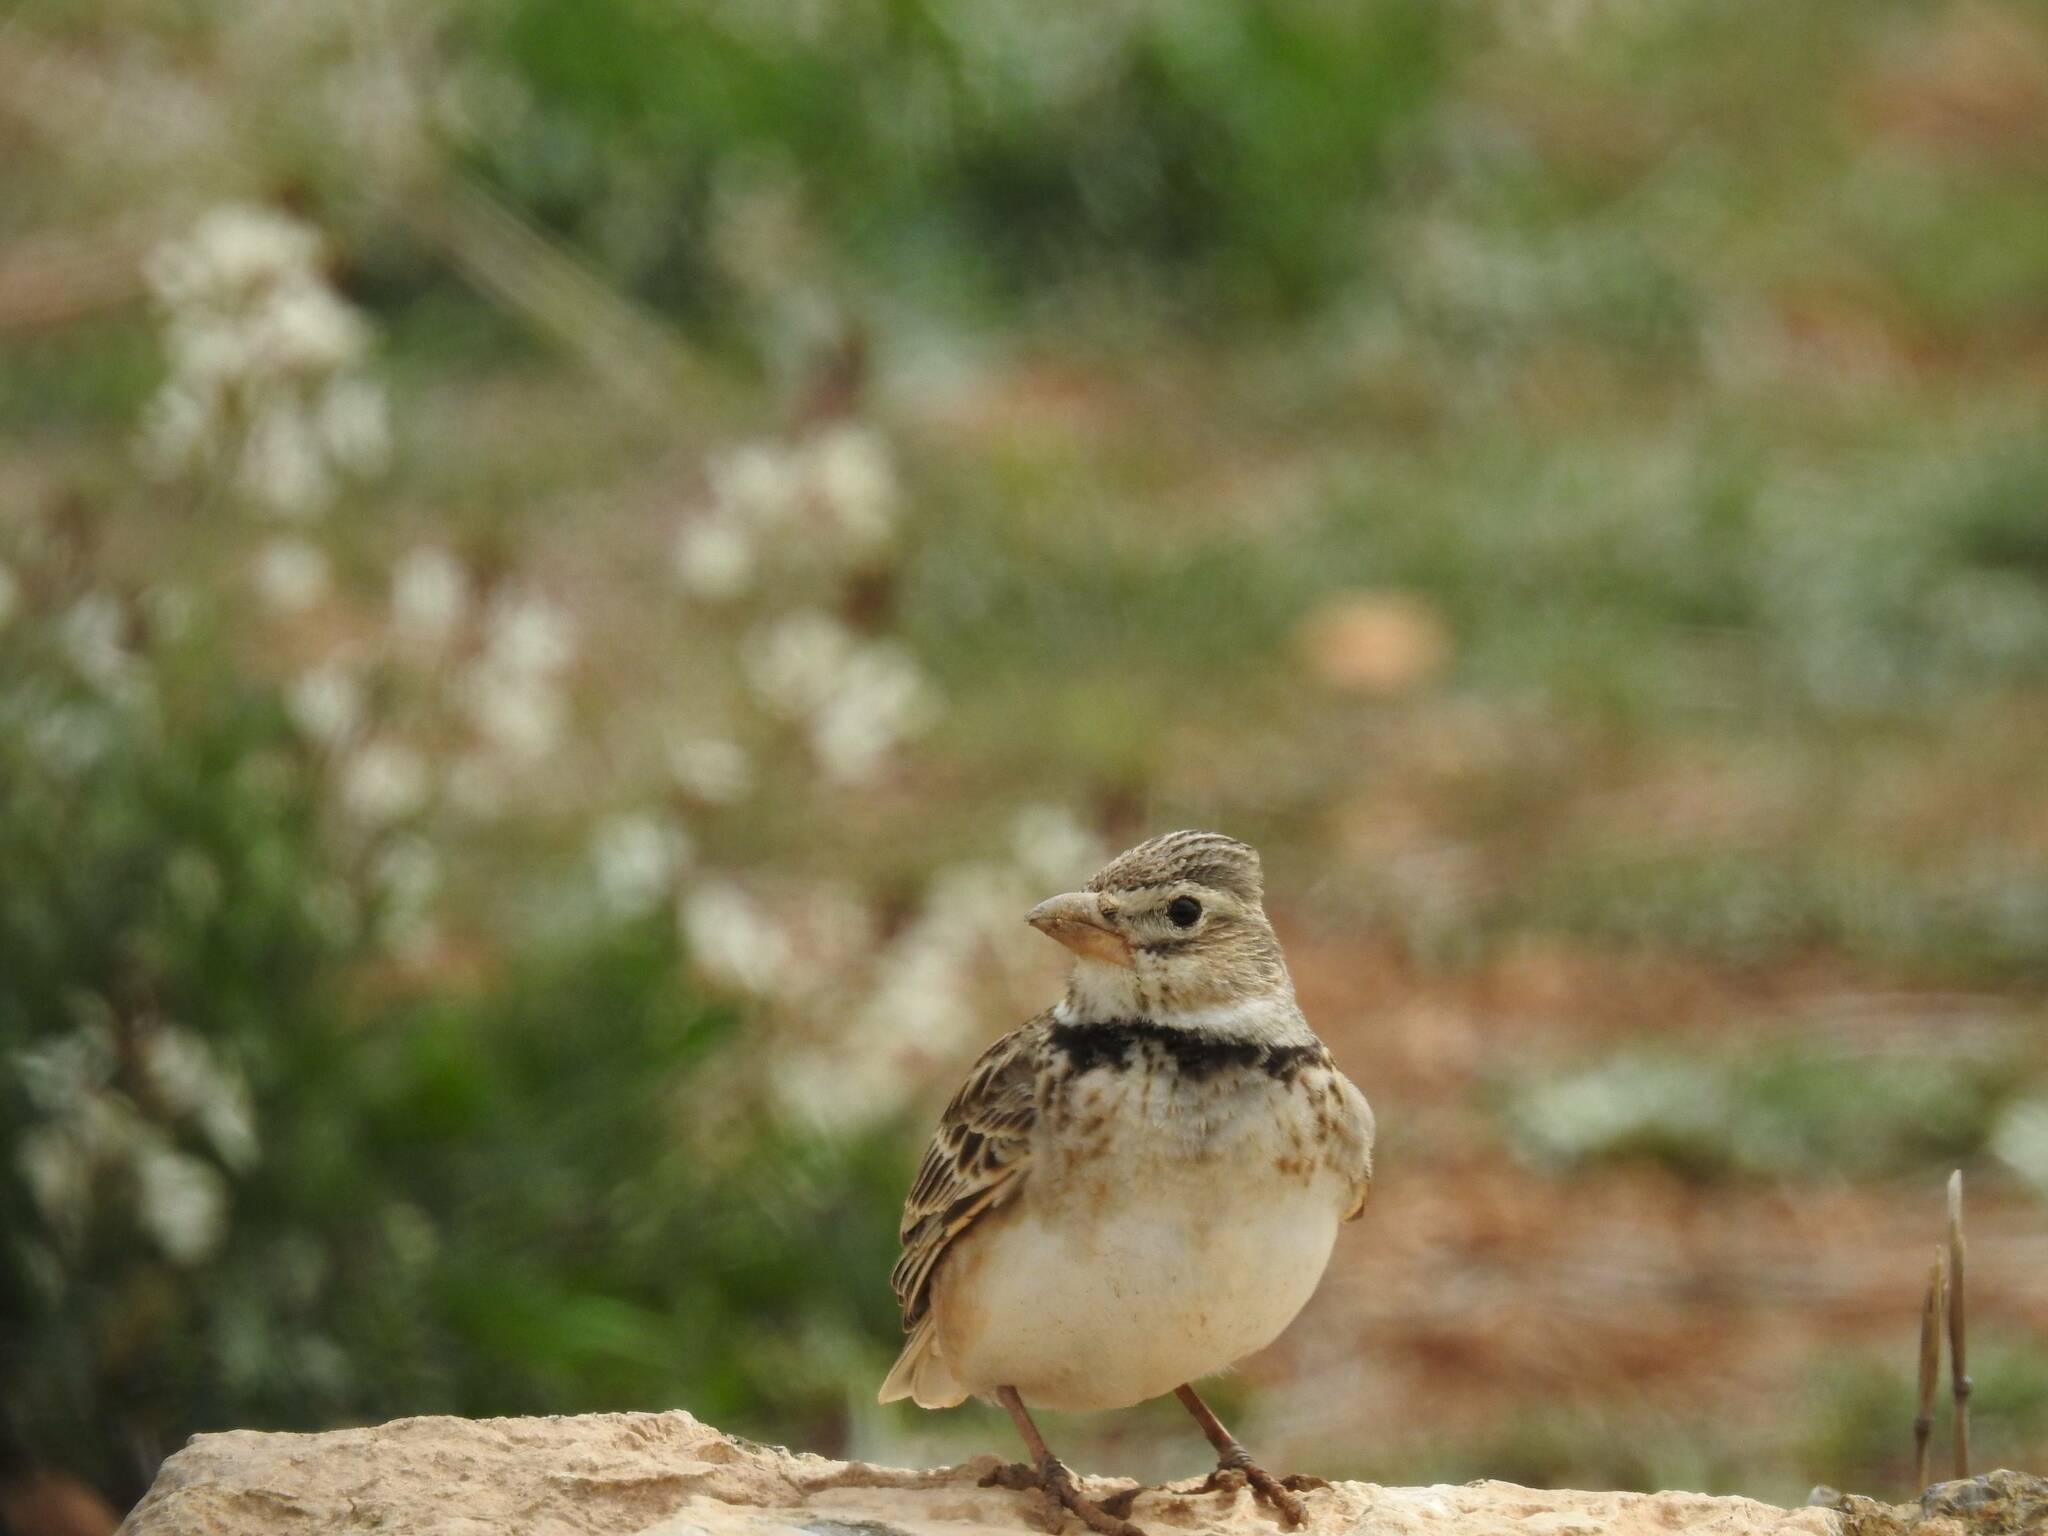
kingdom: Animalia
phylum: Chordata
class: Aves
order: Passeriformes
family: Alaudidae
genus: Melanocorypha
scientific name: Melanocorypha calandra
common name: Calandra lark
